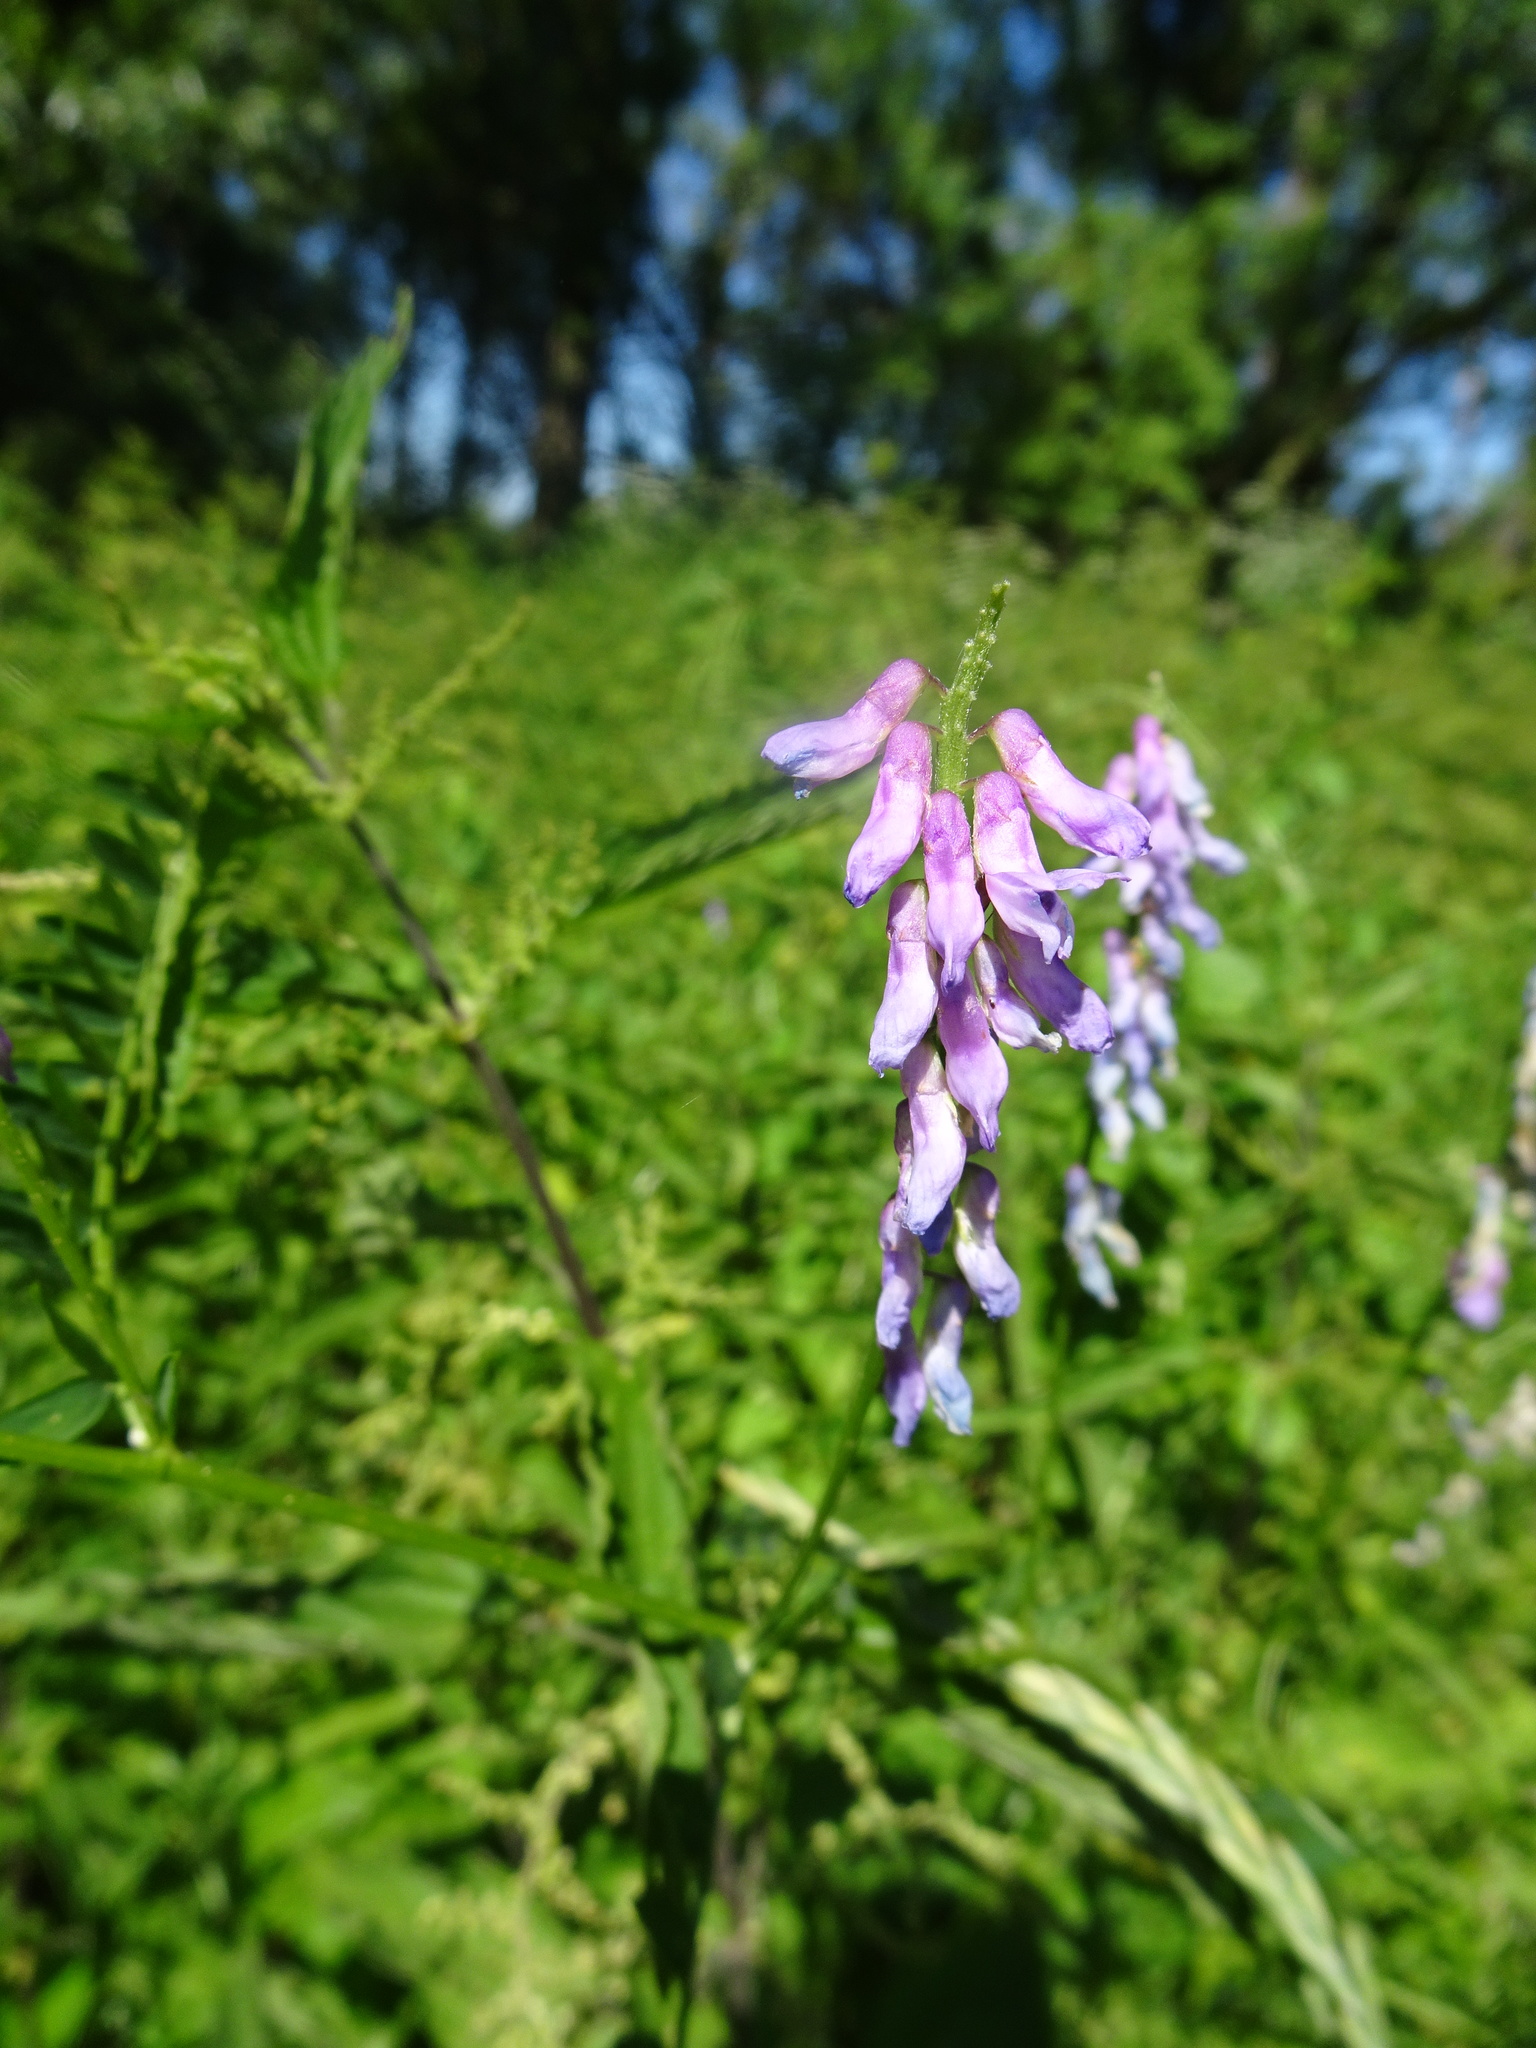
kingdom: Plantae
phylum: Tracheophyta
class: Magnoliopsida
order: Fabales
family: Fabaceae
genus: Vicia
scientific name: Vicia cracca
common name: Bird vetch
